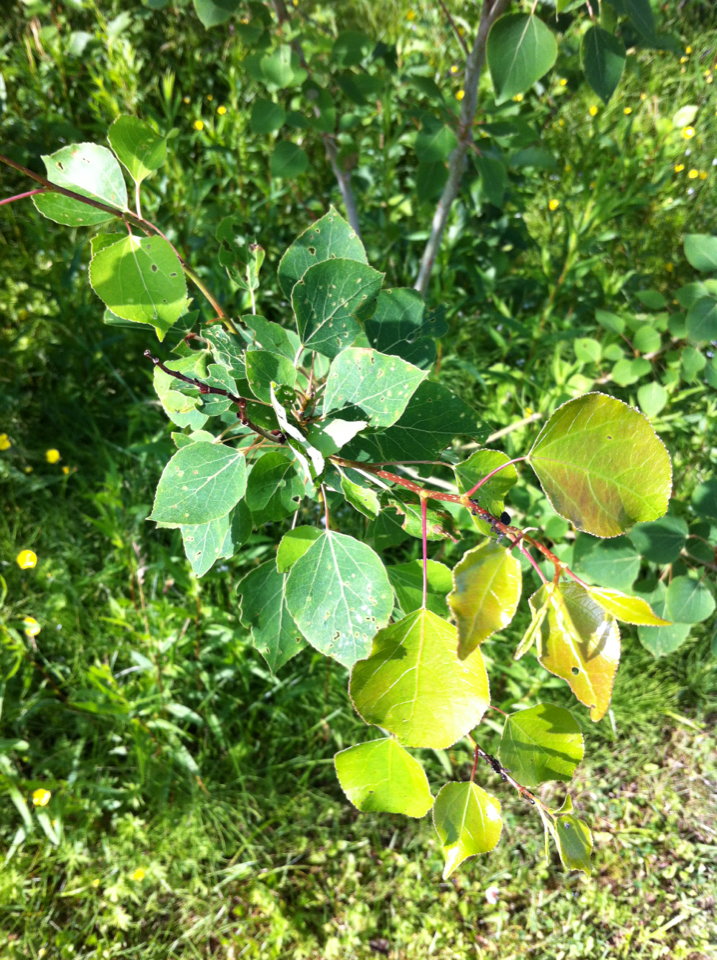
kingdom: Plantae
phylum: Tracheophyta
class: Magnoliopsida
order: Malpighiales
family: Salicaceae
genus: Populus
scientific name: Populus tremuloides
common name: Quaking aspen
